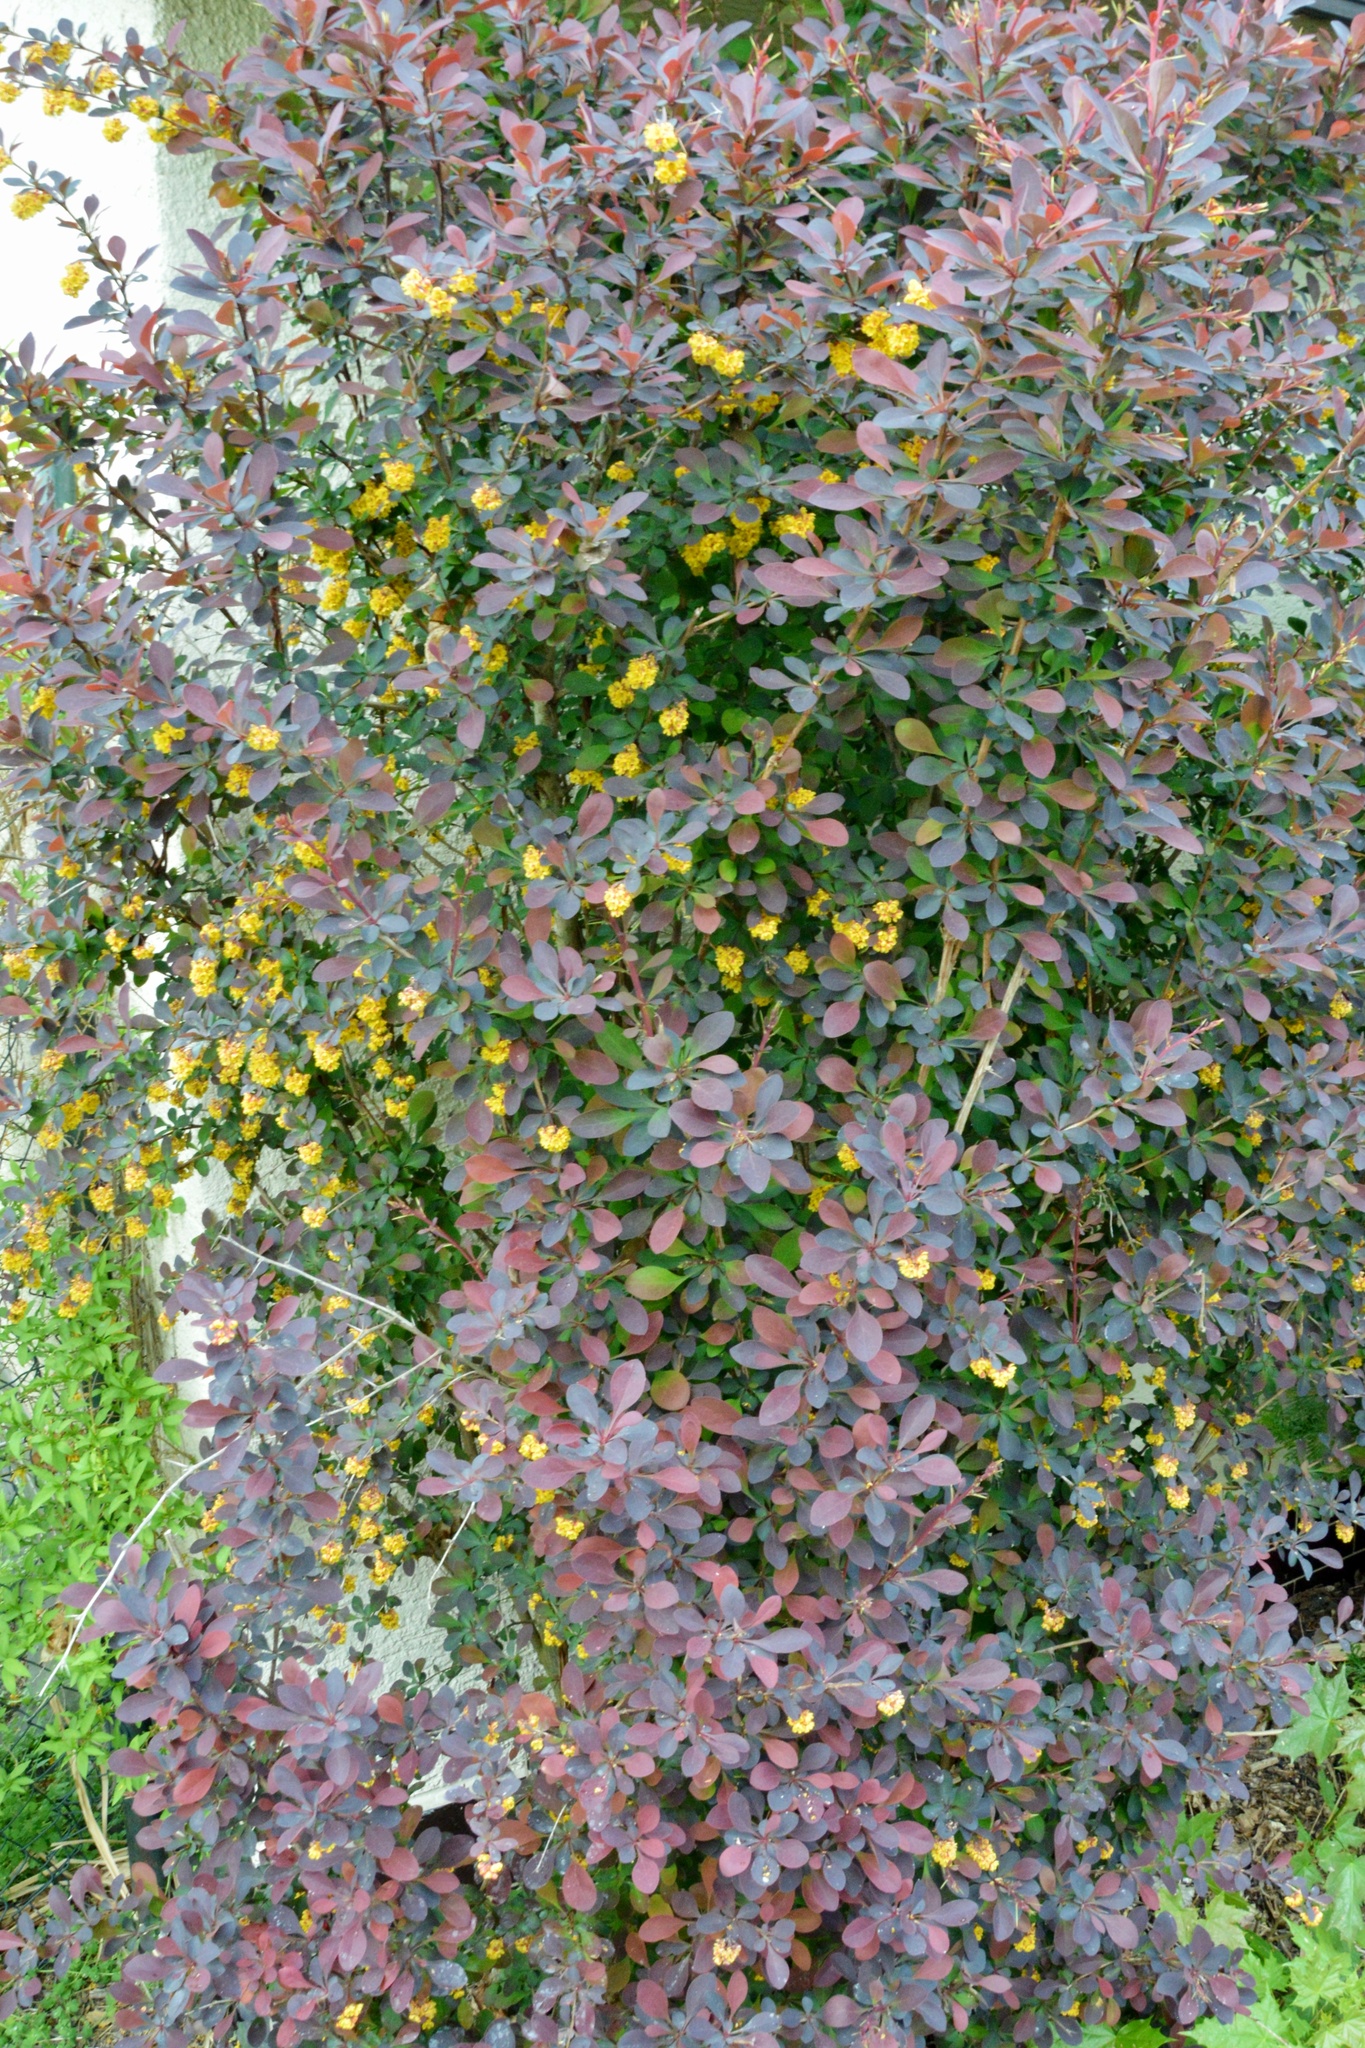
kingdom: Plantae
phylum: Tracheophyta
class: Magnoliopsida
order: Ranunculales
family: Berberidaceae
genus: Berberis
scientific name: Berberis thunbergii
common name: Japanese barberry
